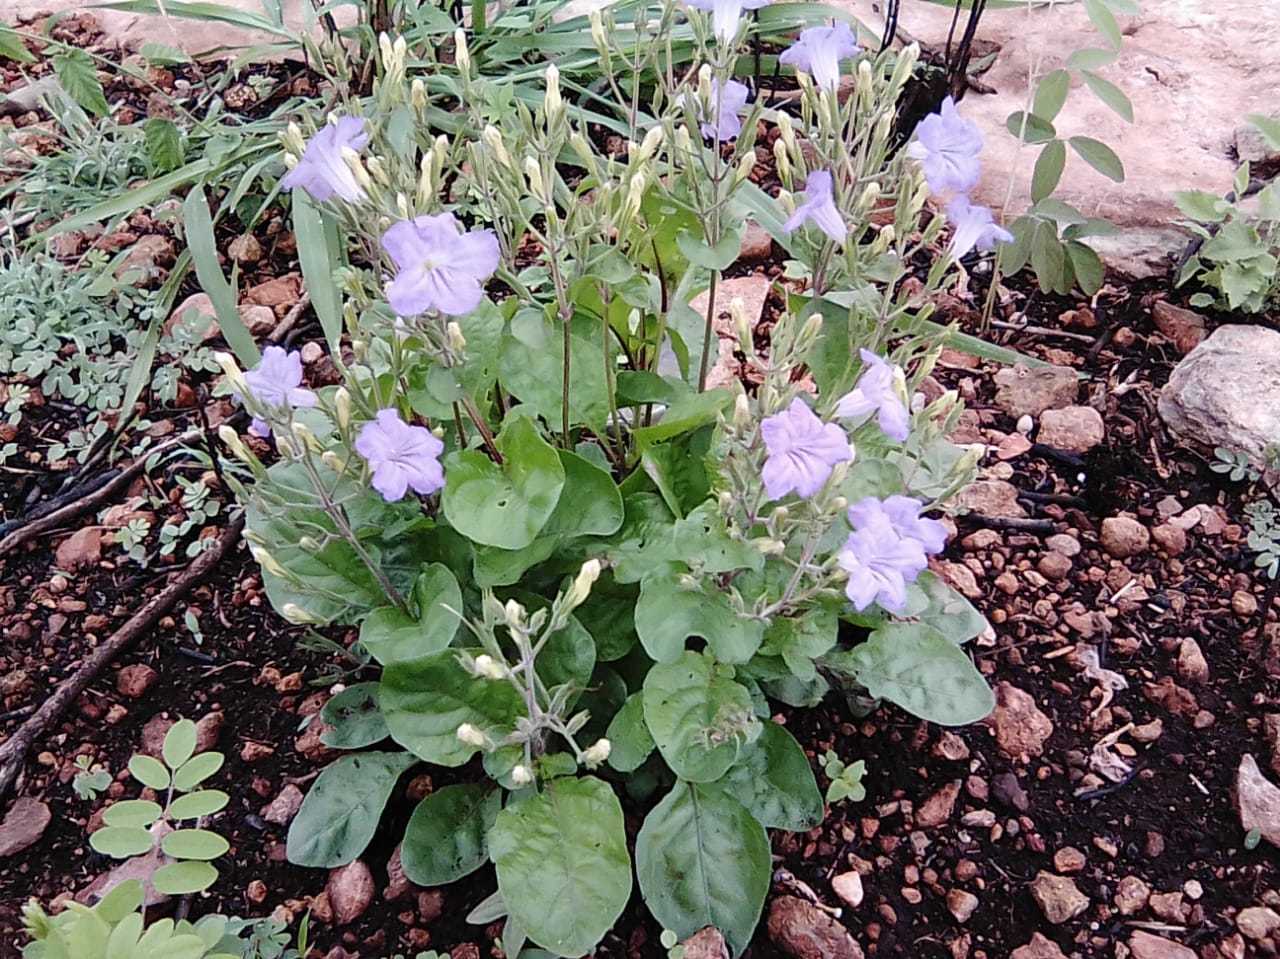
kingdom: Plantae
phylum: Tracheophyta
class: Magnoliopsida
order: Lamiales
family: Acanthaceae
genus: Ruellia
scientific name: Ruellia ciliatiflora
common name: Hairyflower wild petunia
